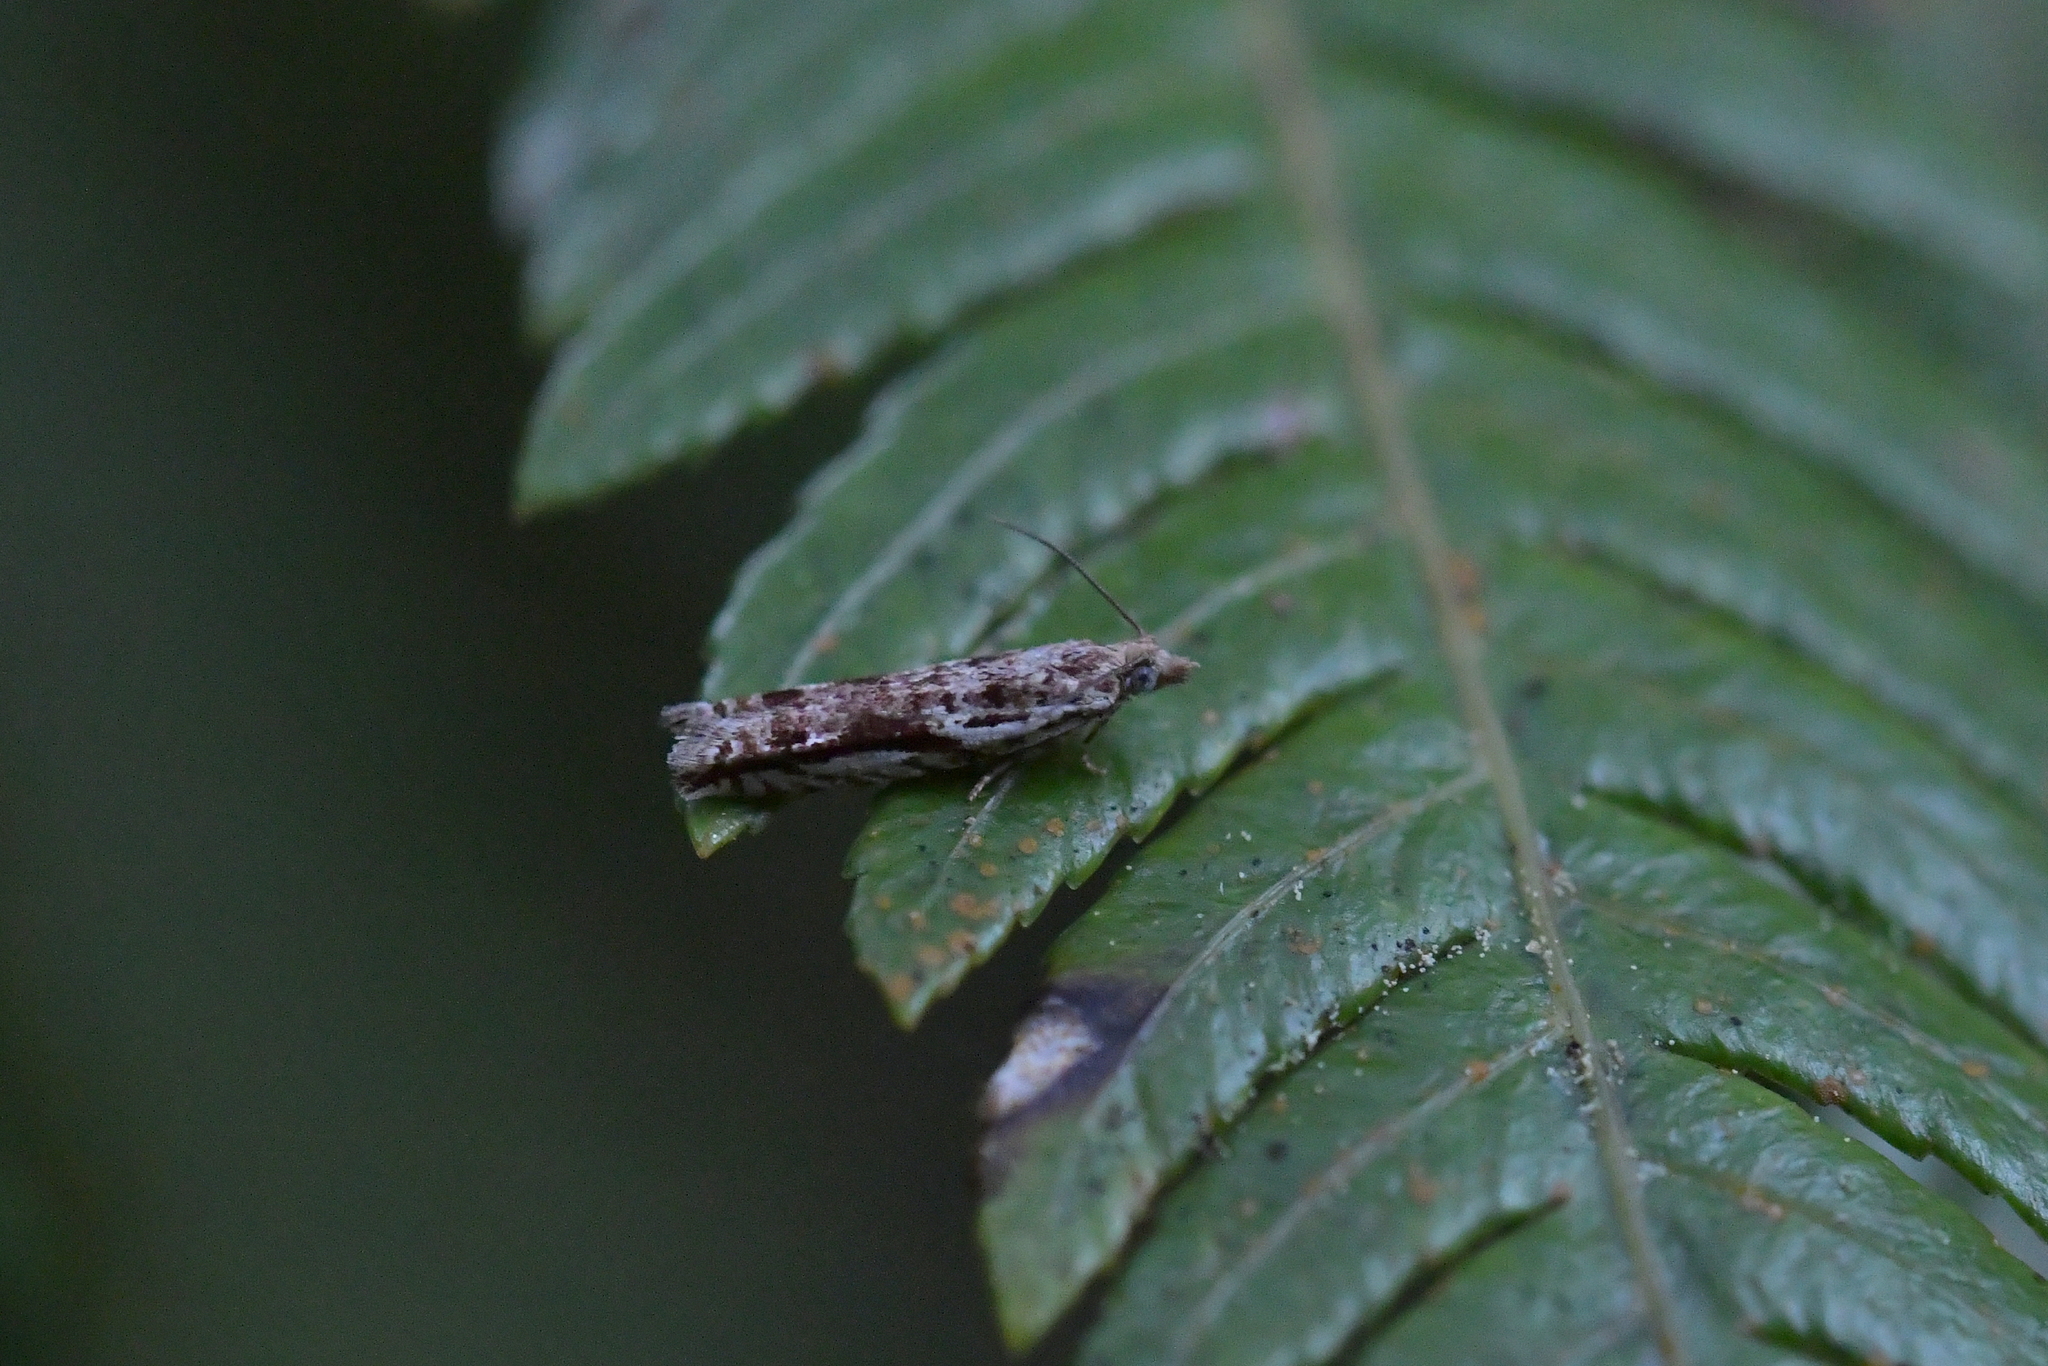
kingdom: Animalia
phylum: Arthropoda
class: Insecta
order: Lepidoptera
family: Tortricidae
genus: Holocola
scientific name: Holocola
